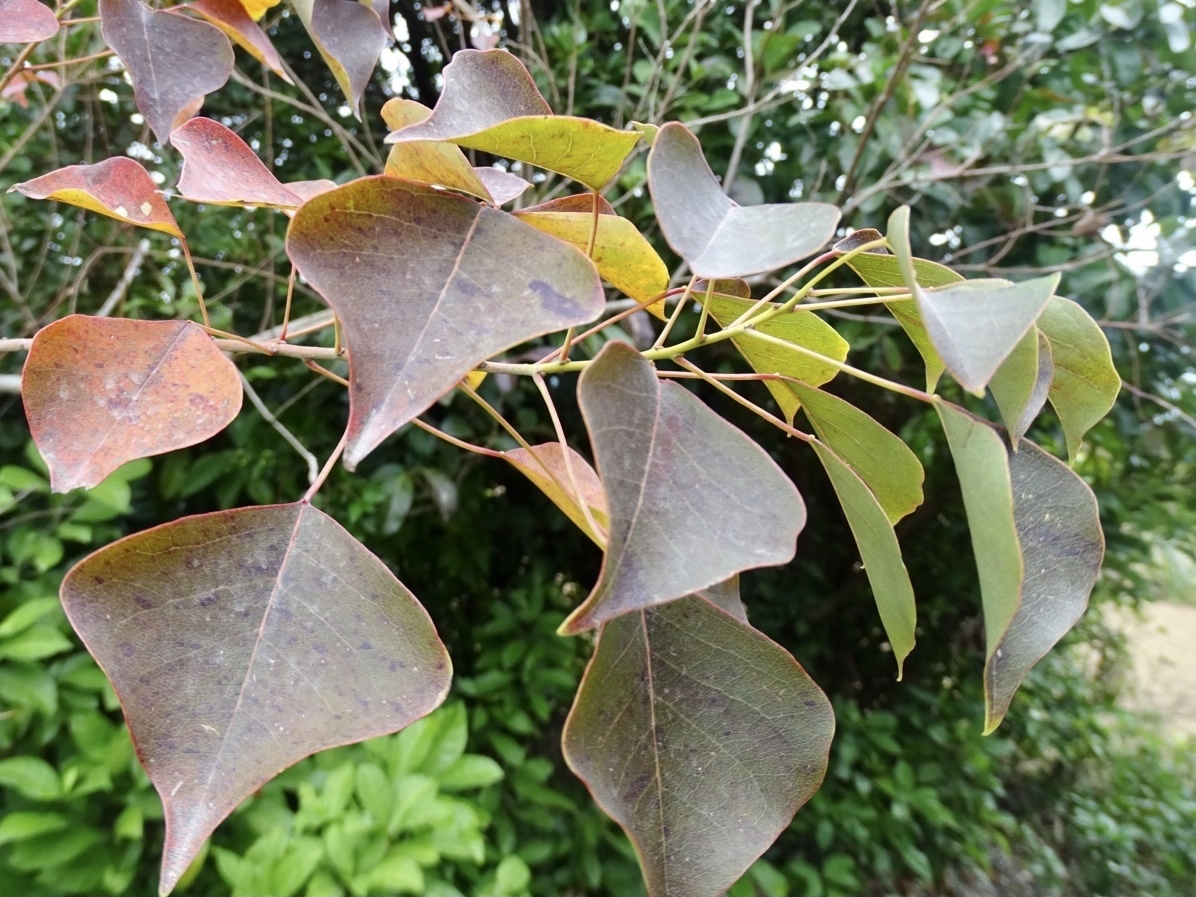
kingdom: Plantae
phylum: Tracheophyta
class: Magnoliopsida
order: Malpighiales
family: Euphorbiaceae
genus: Triadica
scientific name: Triadica sebifera
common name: Chinese tallow
